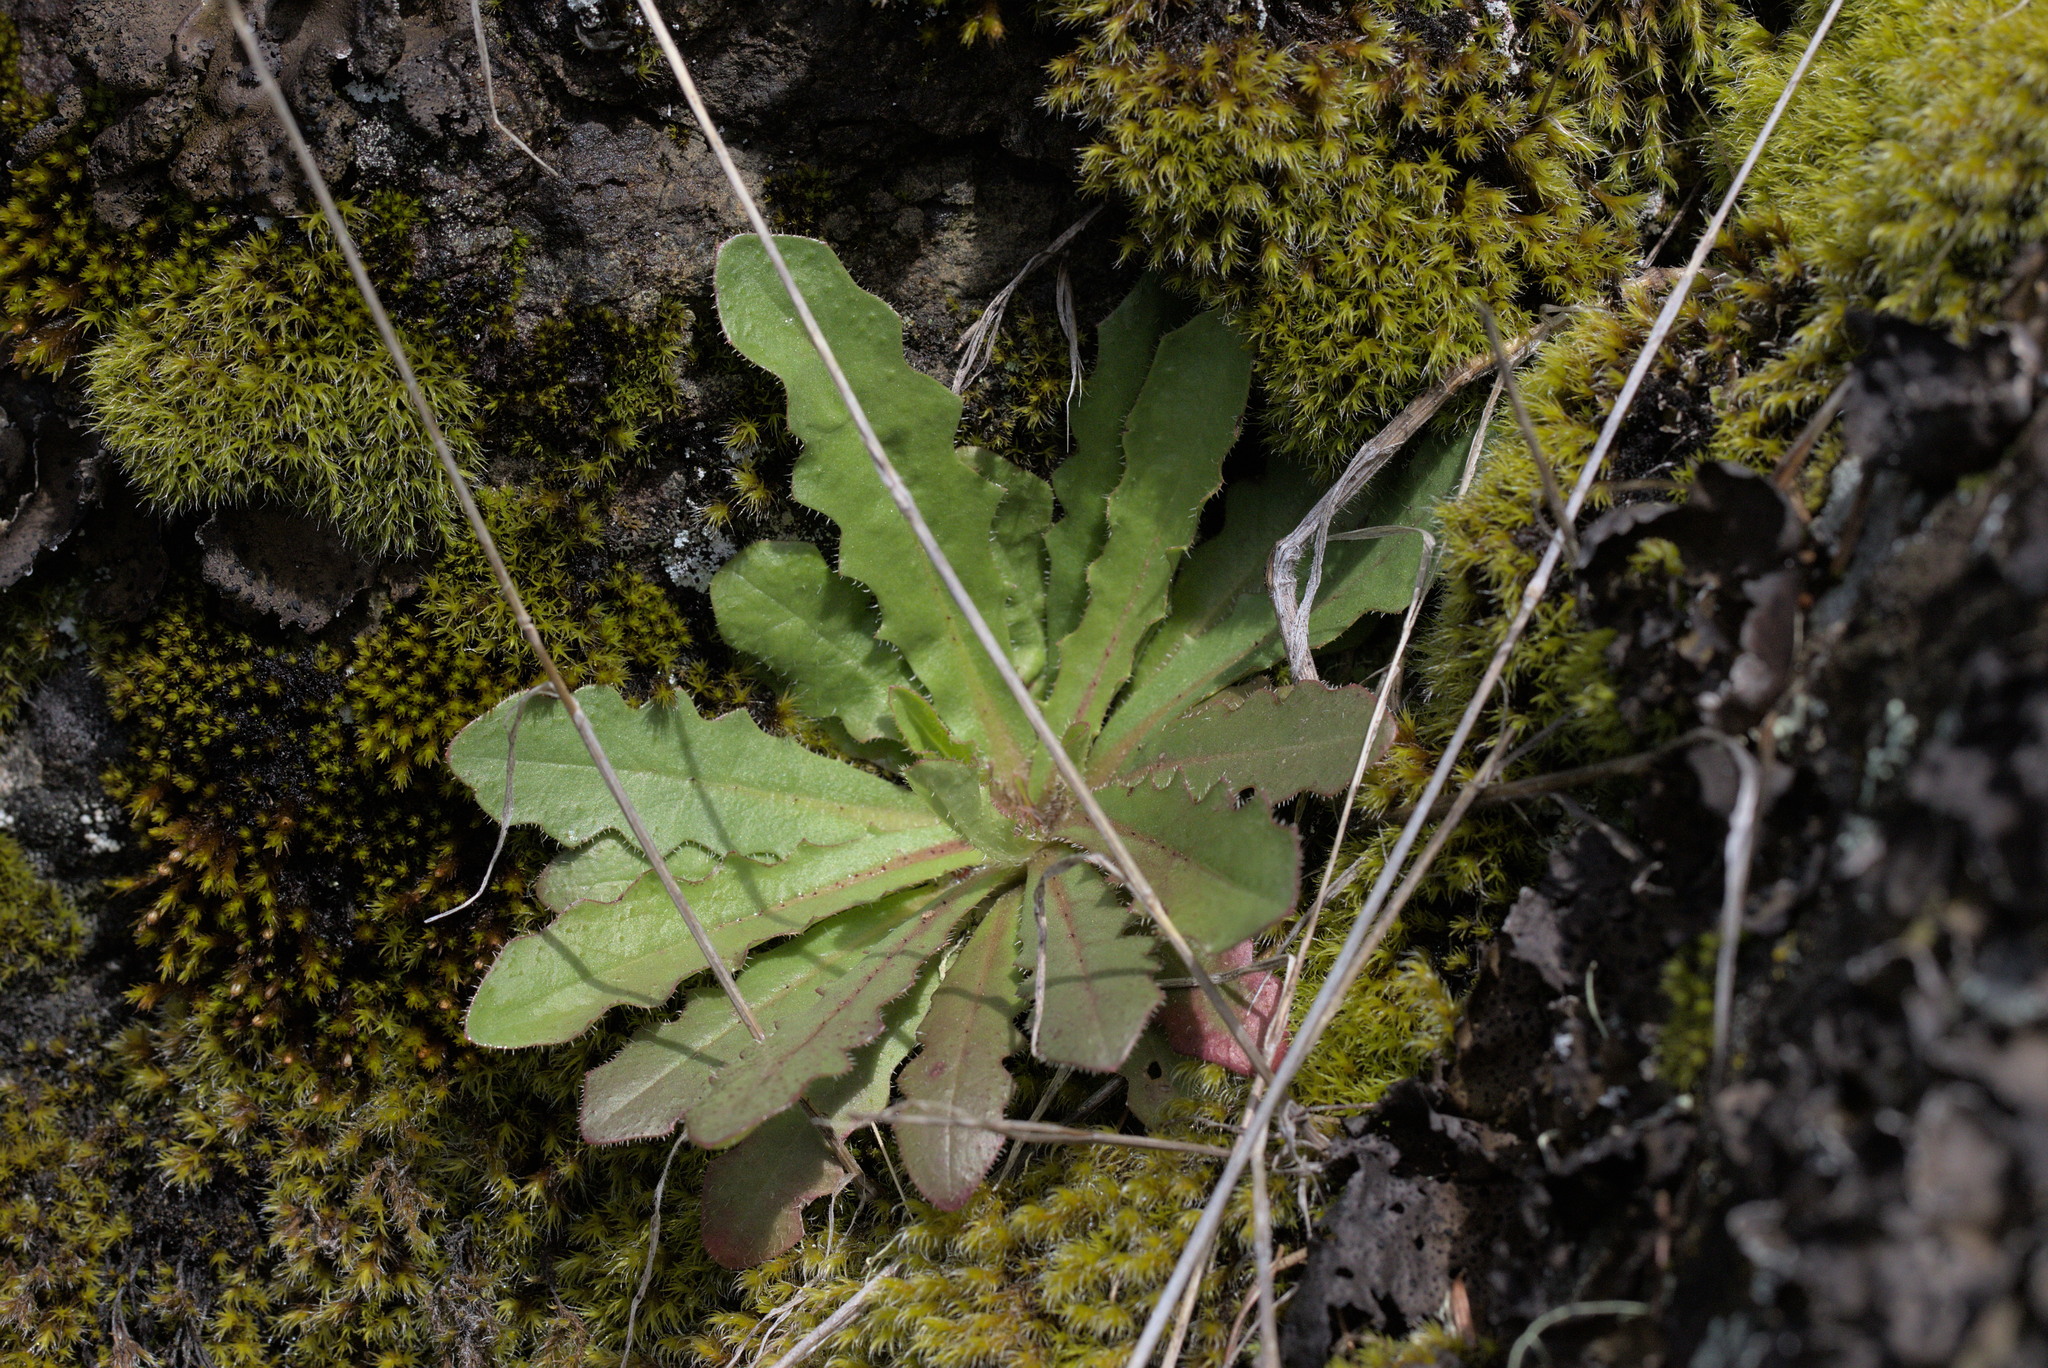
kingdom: Plantae
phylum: Tracheophyta
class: Magnoliopsida
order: Asterales
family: Asteraceae
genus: Hypochaeris
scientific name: Hypochaeris radicata
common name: Flatweed
